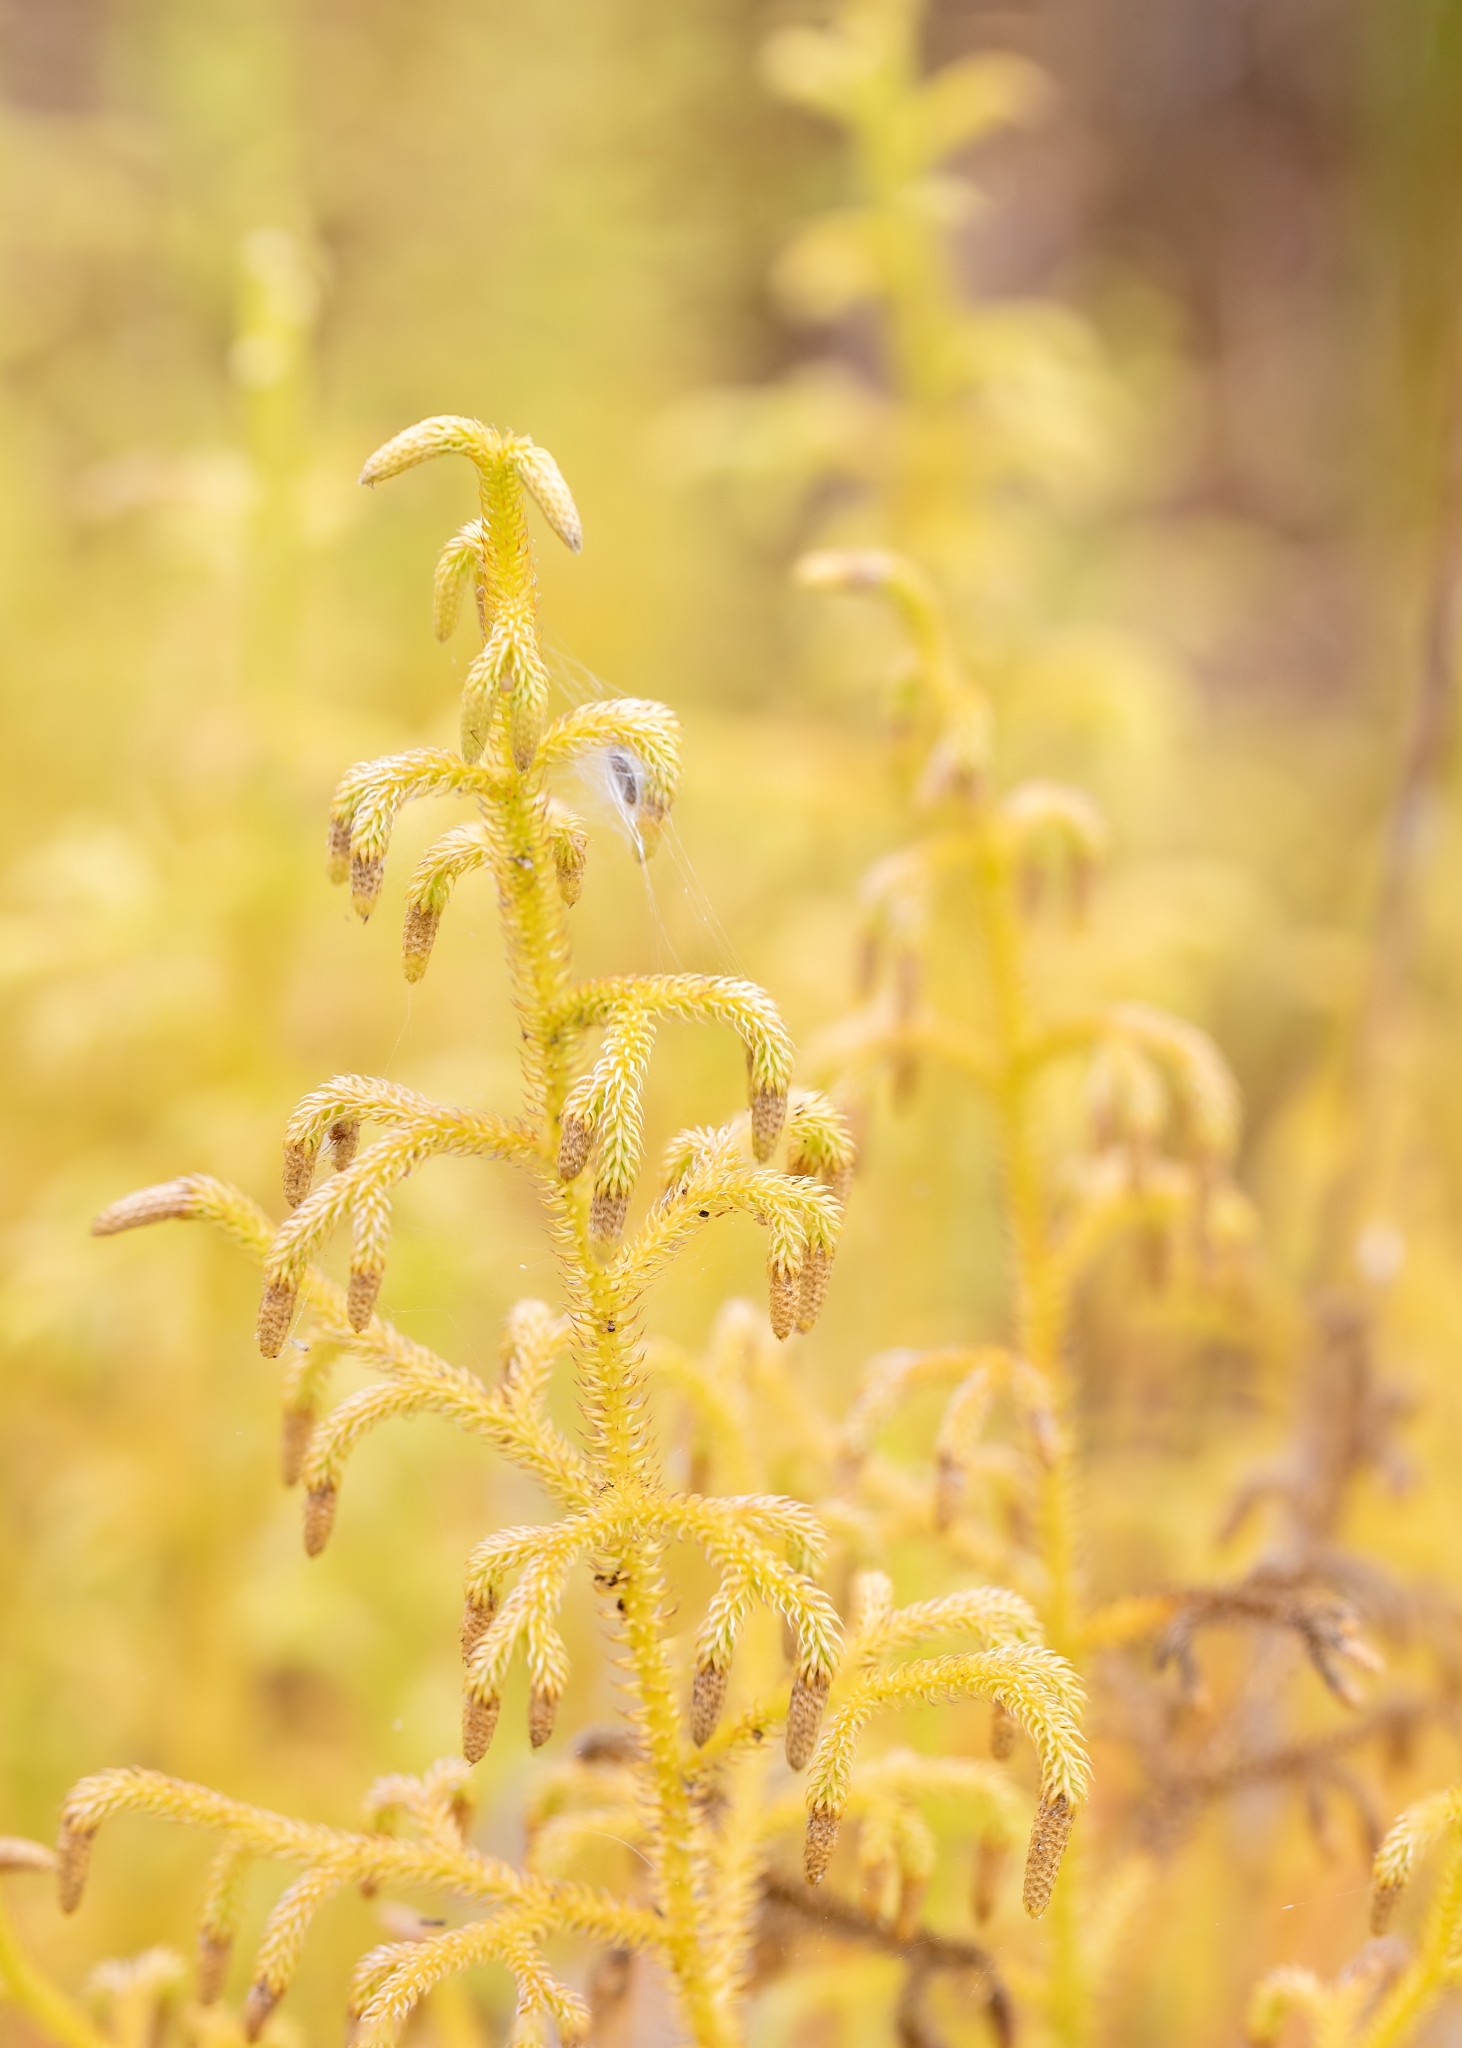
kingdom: Plantae
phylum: Tracheophyta
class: Lycopodiopsida
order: Lycopodiales
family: Lycopodiaceae
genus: Palhinhaea
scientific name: Palhinhaea cernua
